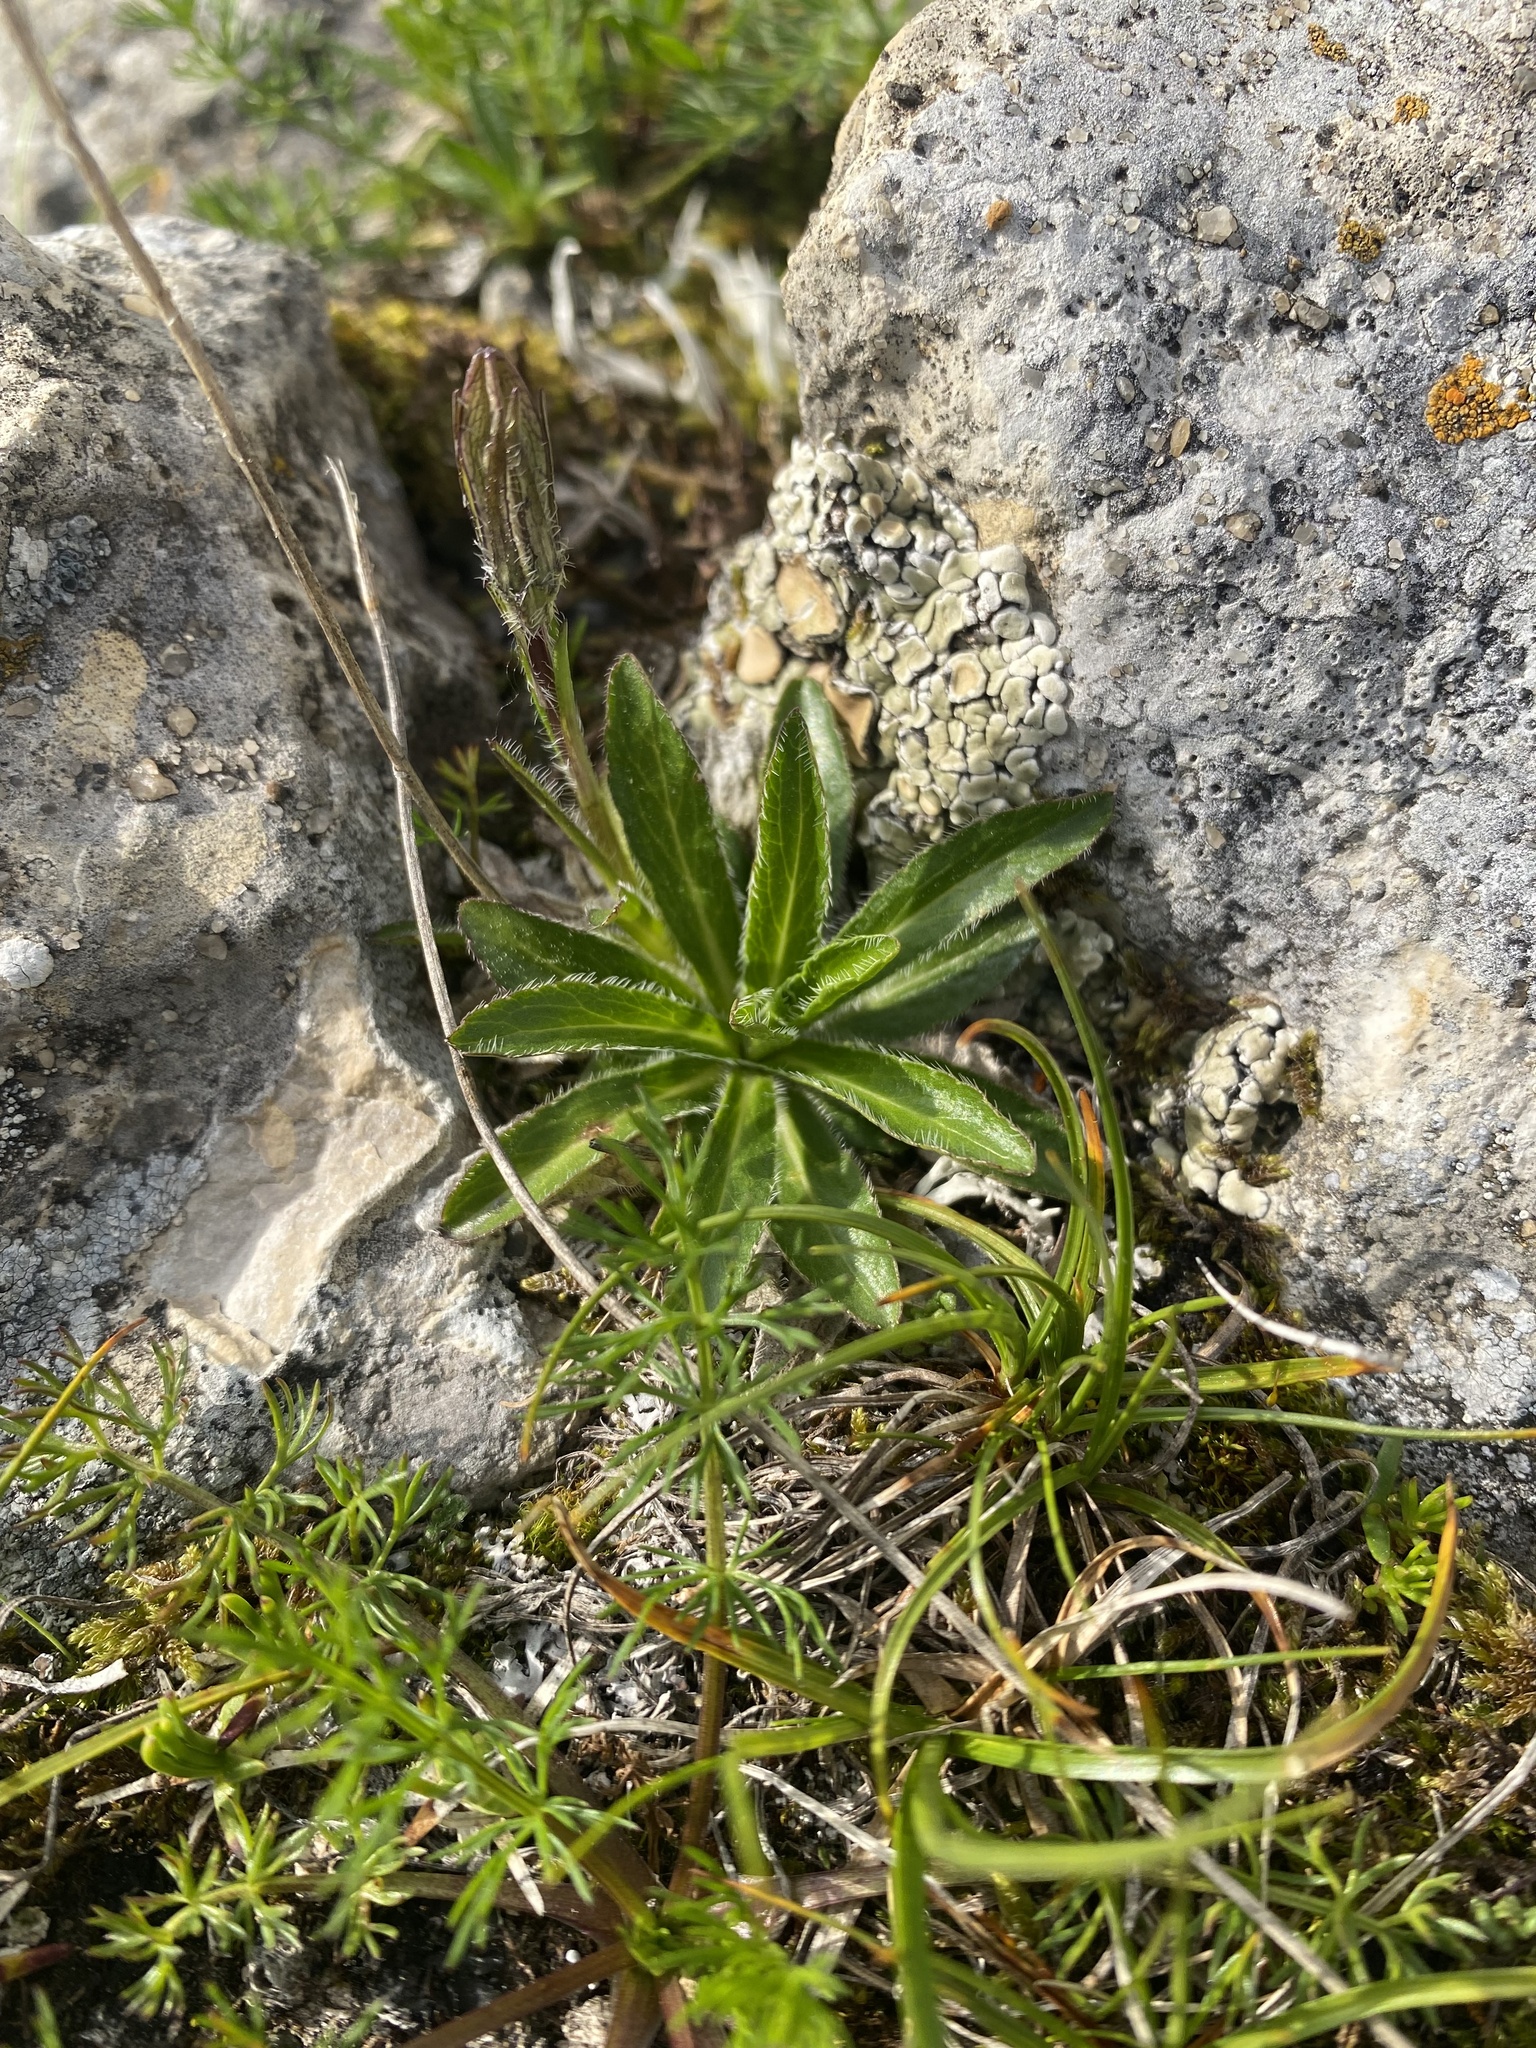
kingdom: Plantae
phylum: Tracheophyta
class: Magnoliopsida
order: Asterales
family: Campanulaceae
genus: Campanula
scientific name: Campanula tridentata
